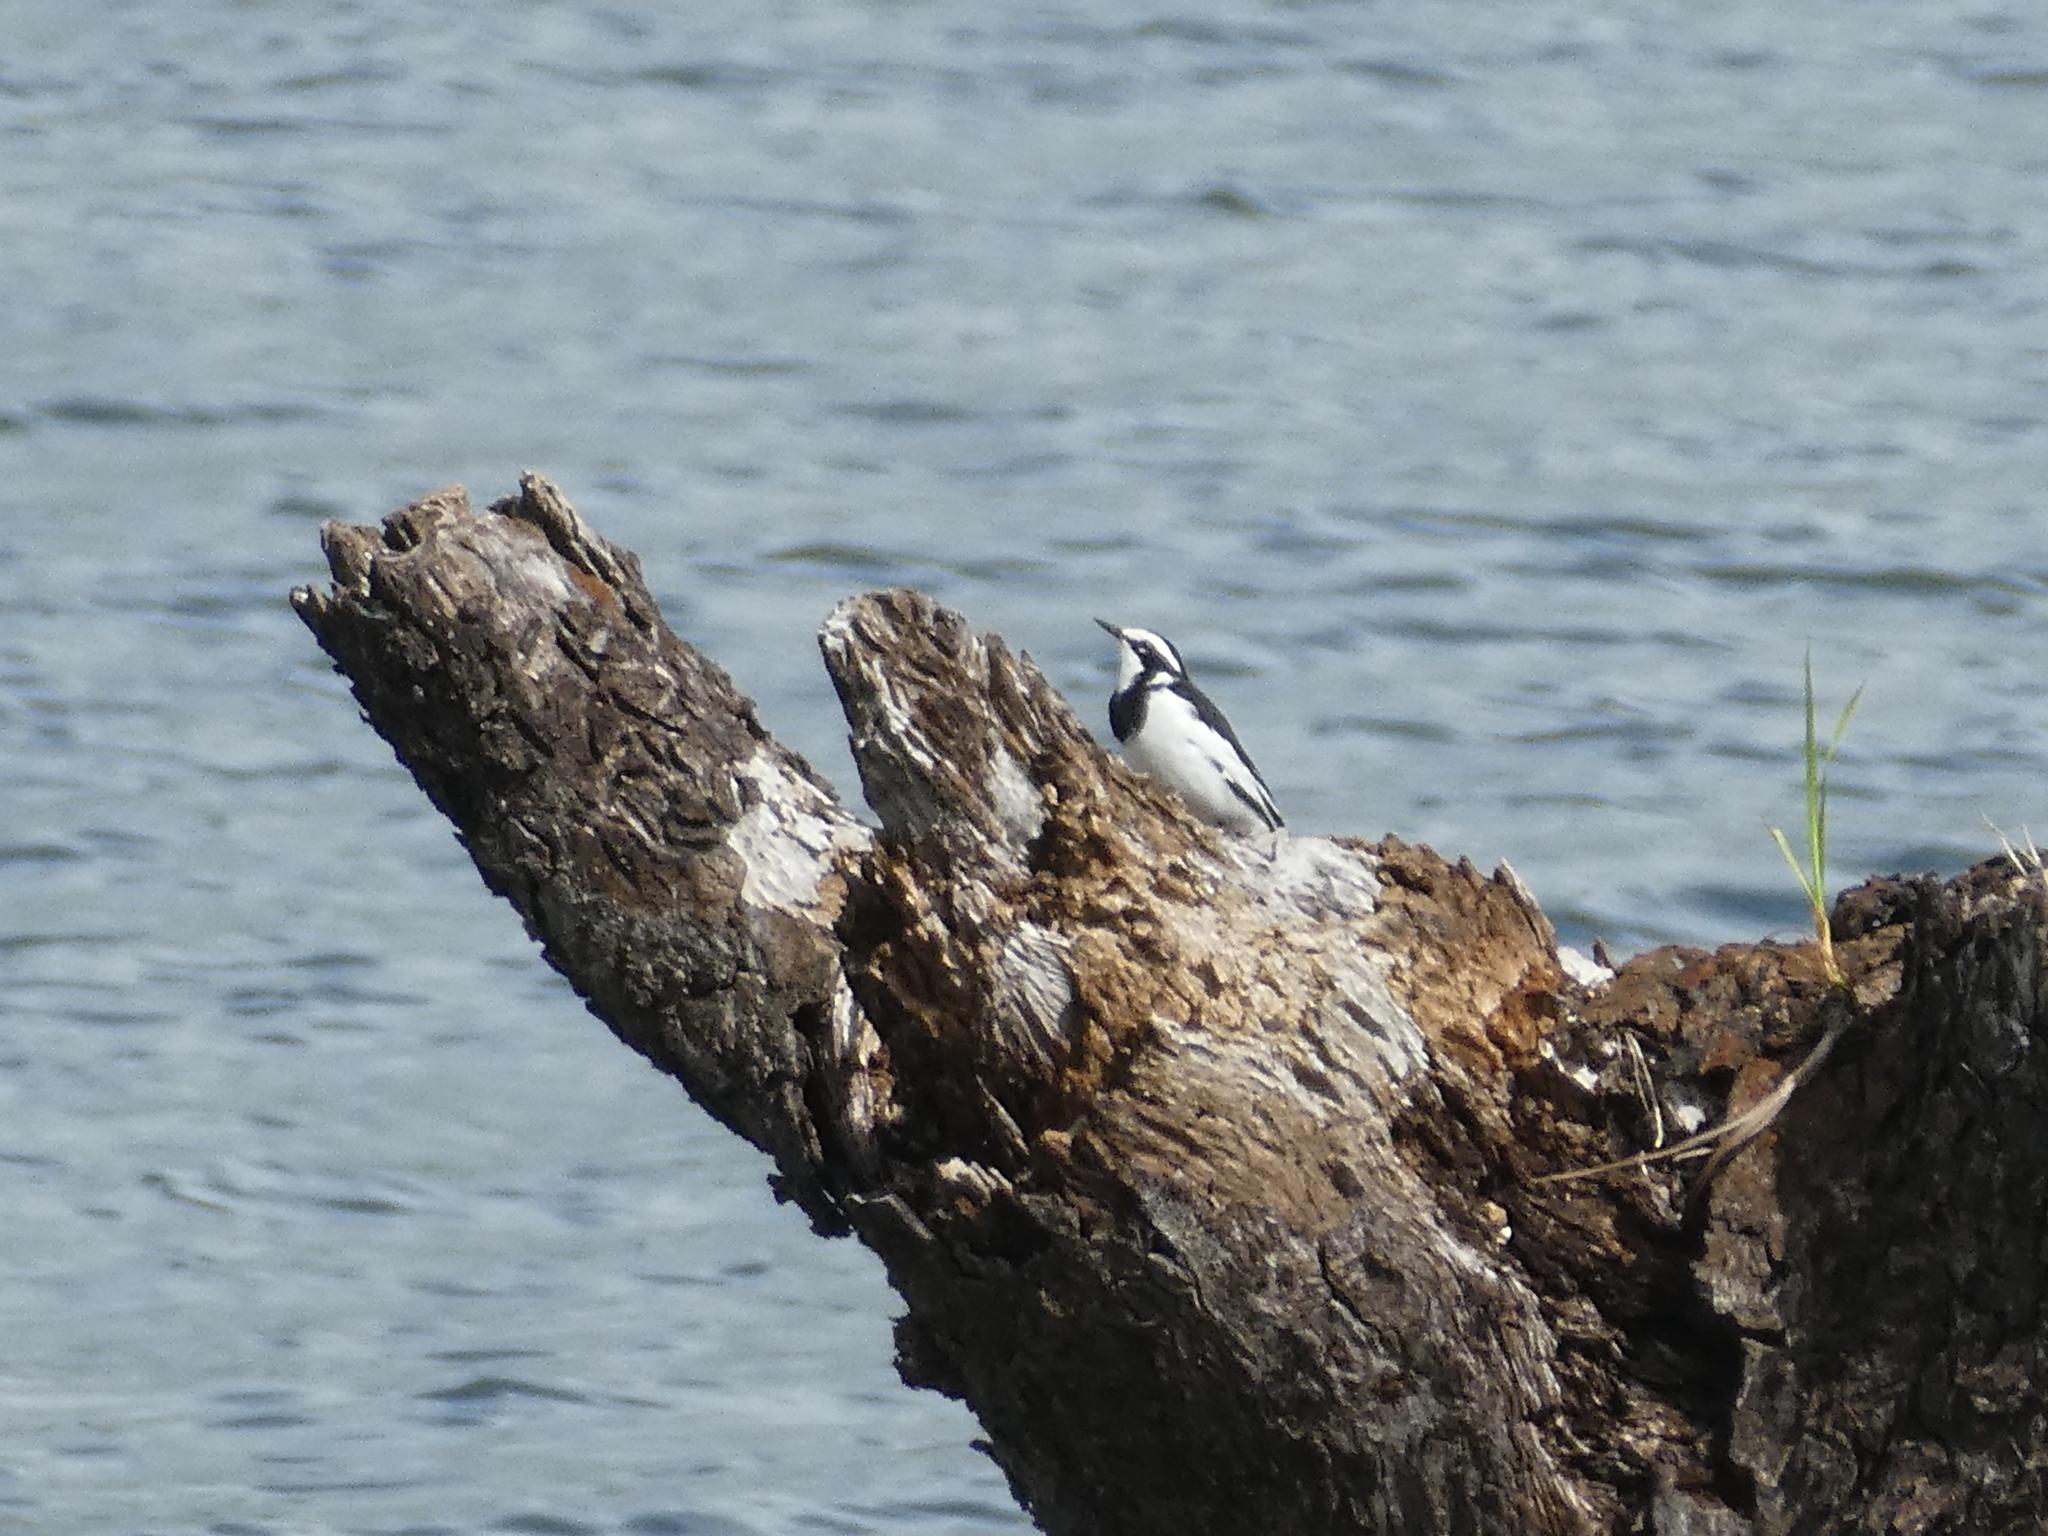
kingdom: Animalia
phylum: Chordata
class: Aves
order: Passeriformes
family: Motacillidae
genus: Motacilla
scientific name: Motacilla aguimp
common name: African pied wagtail
